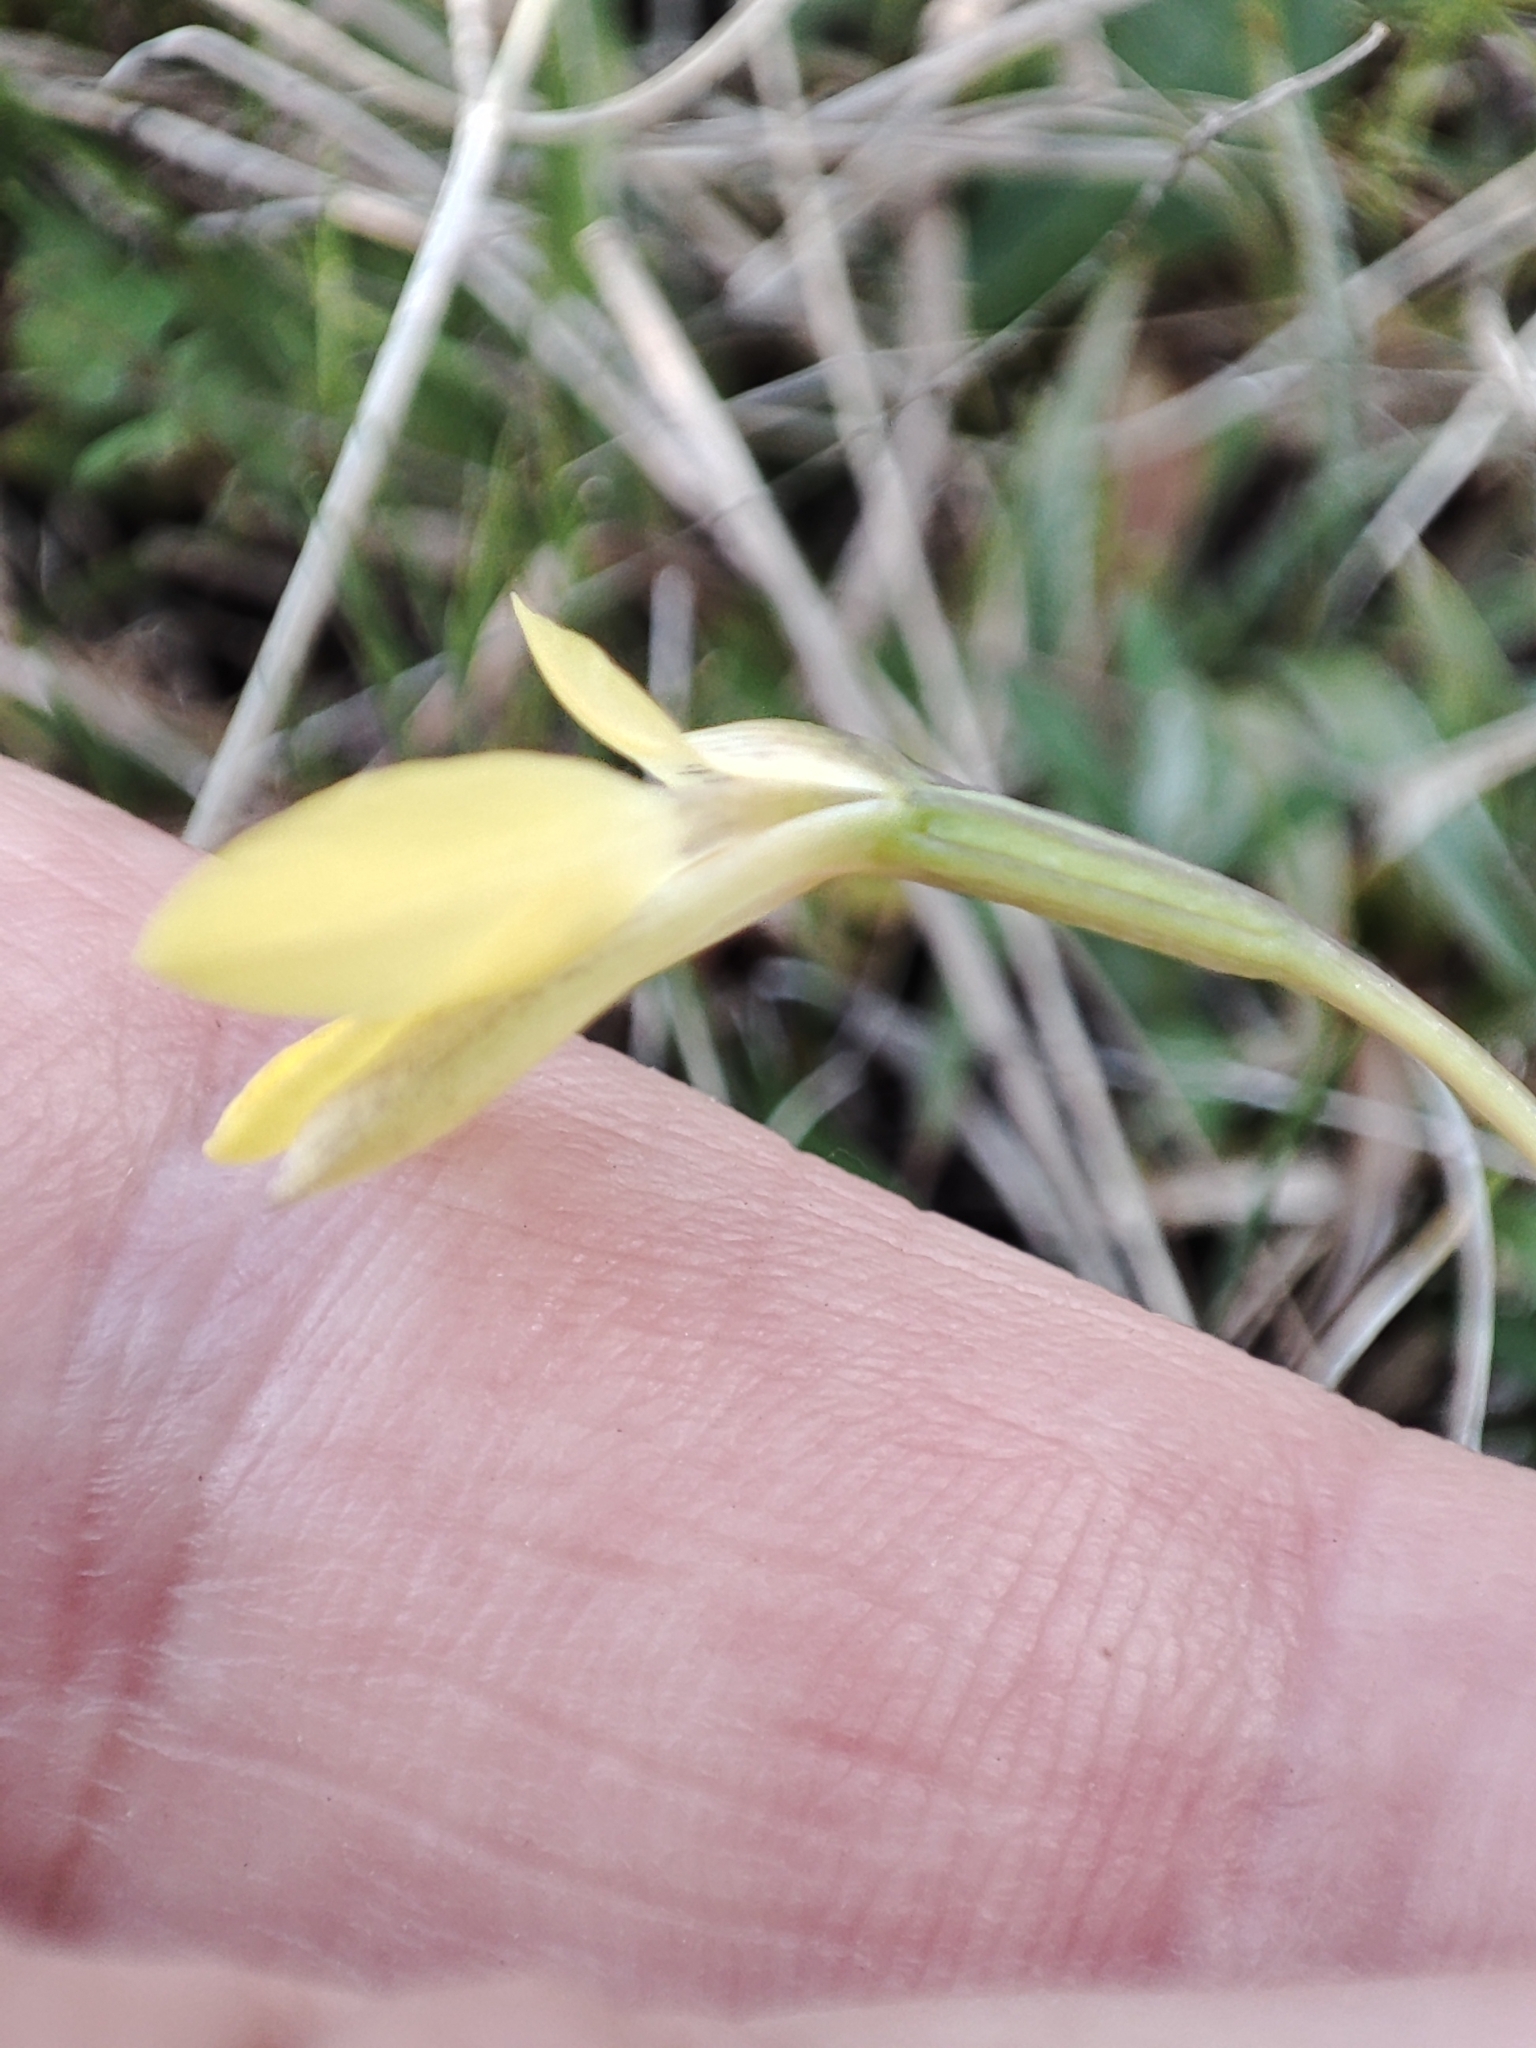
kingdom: Plantae
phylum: Tracheophyta
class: Liliopsida
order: Asparagales
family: Orchidaceae
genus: Diuris
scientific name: Diuris subalpina
